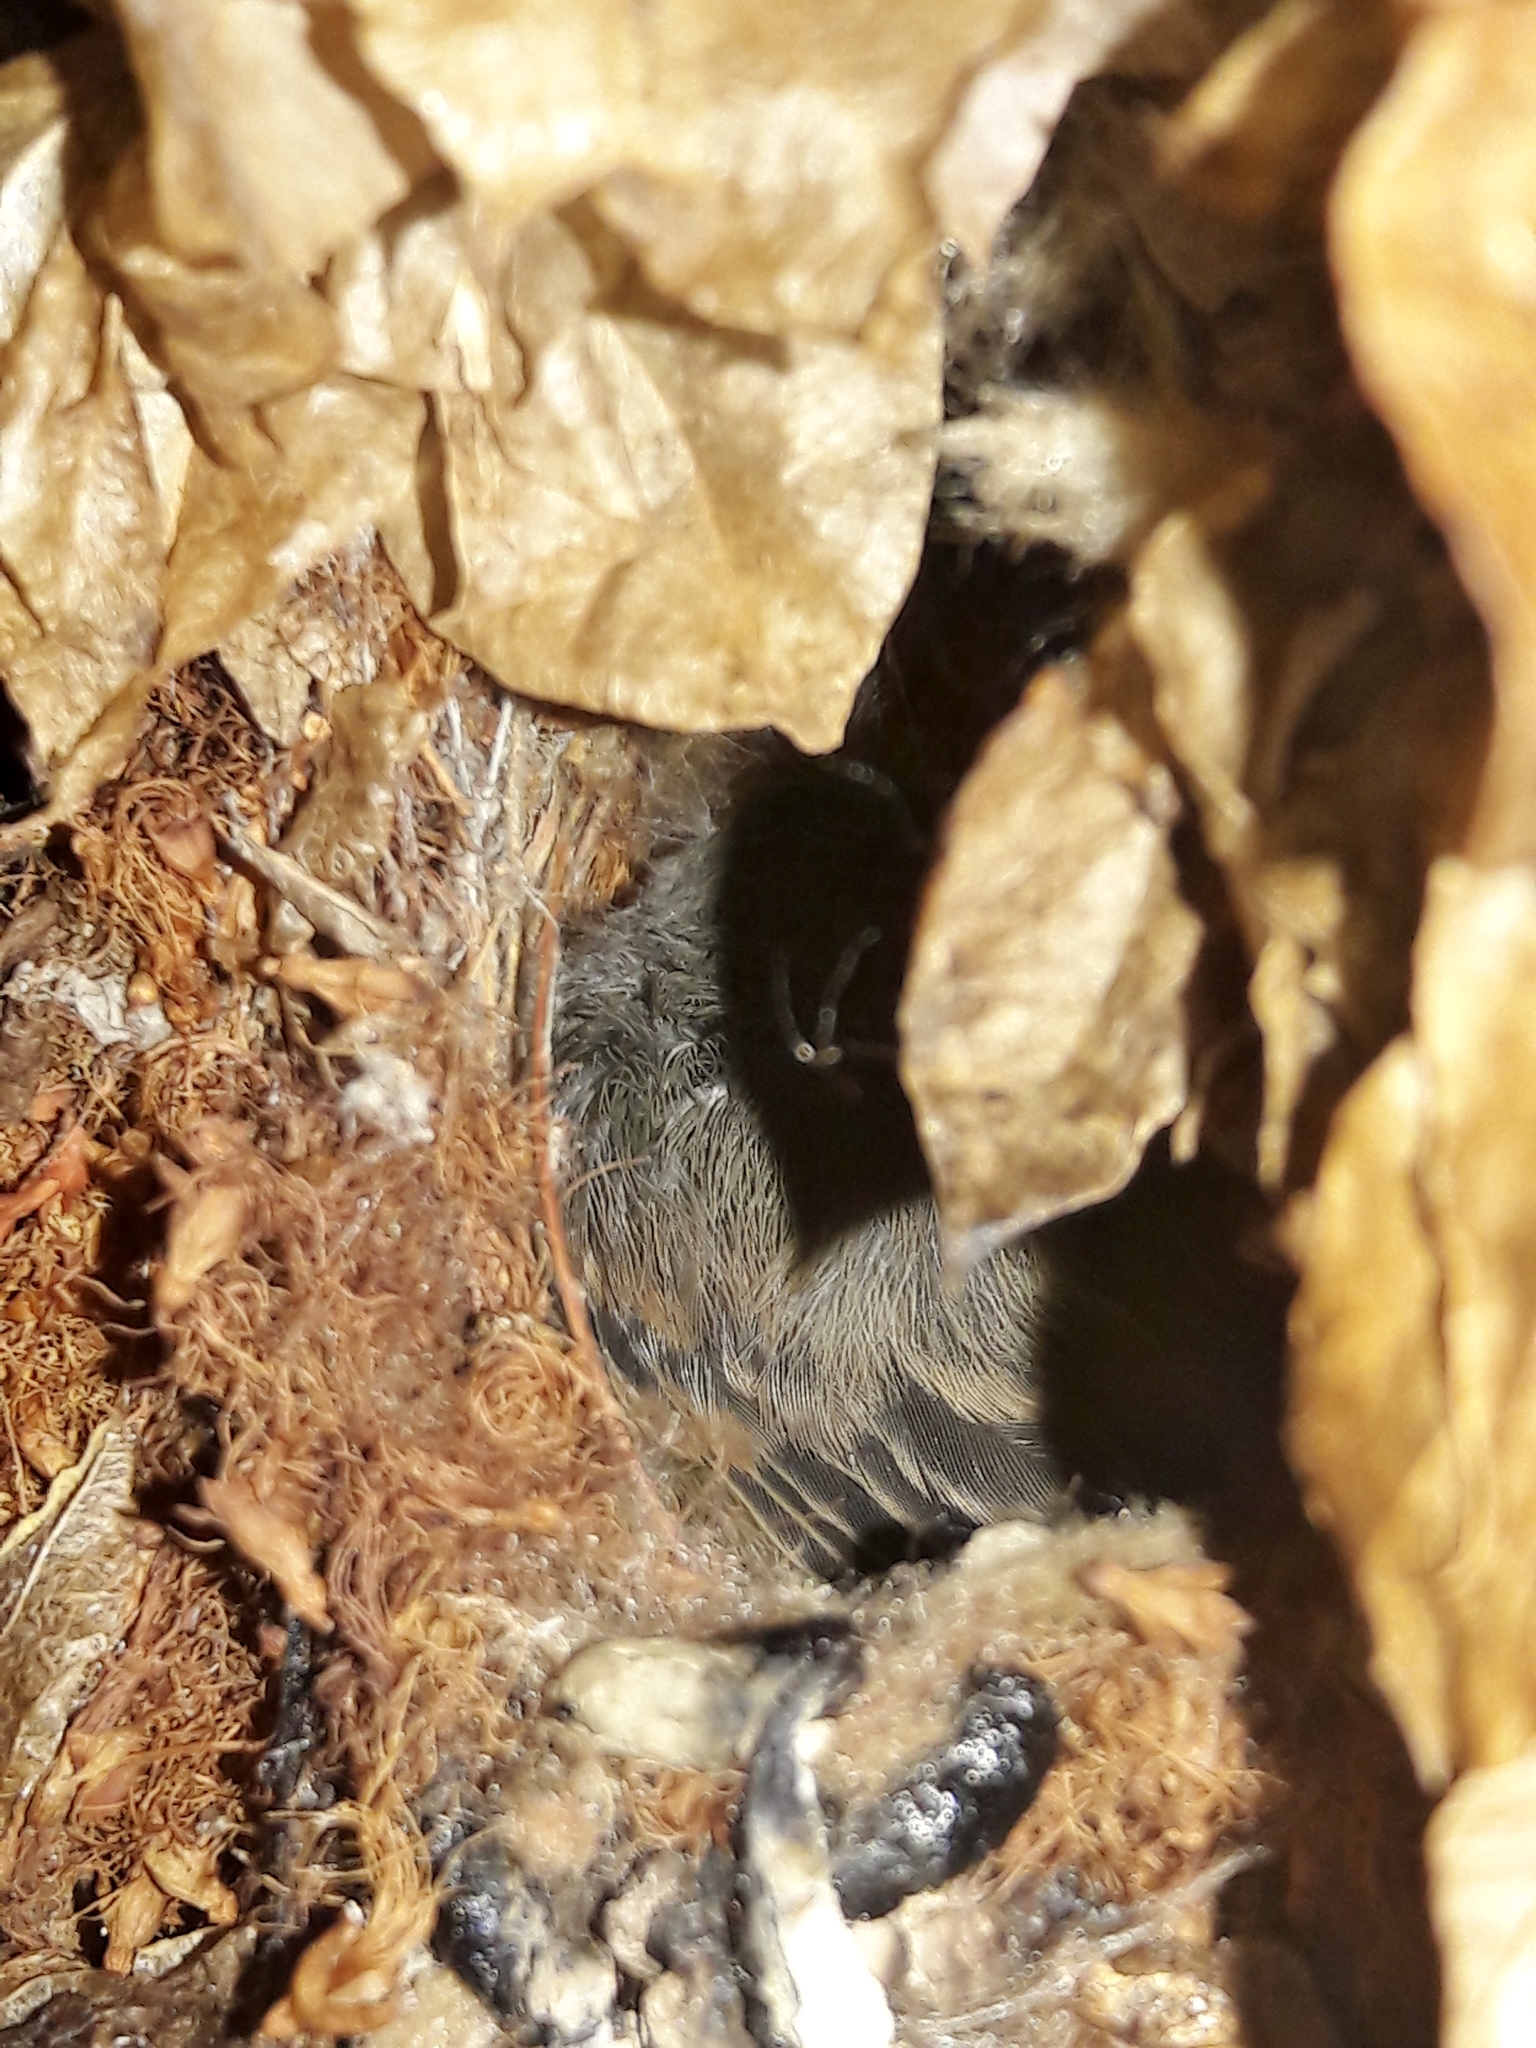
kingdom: Animalia
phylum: Chordata
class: Aves
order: Passeriformes
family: Tyrannidae
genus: Camptostoma
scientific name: Camptostoma obsoletum
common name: Southern beardless-tyrannulet
